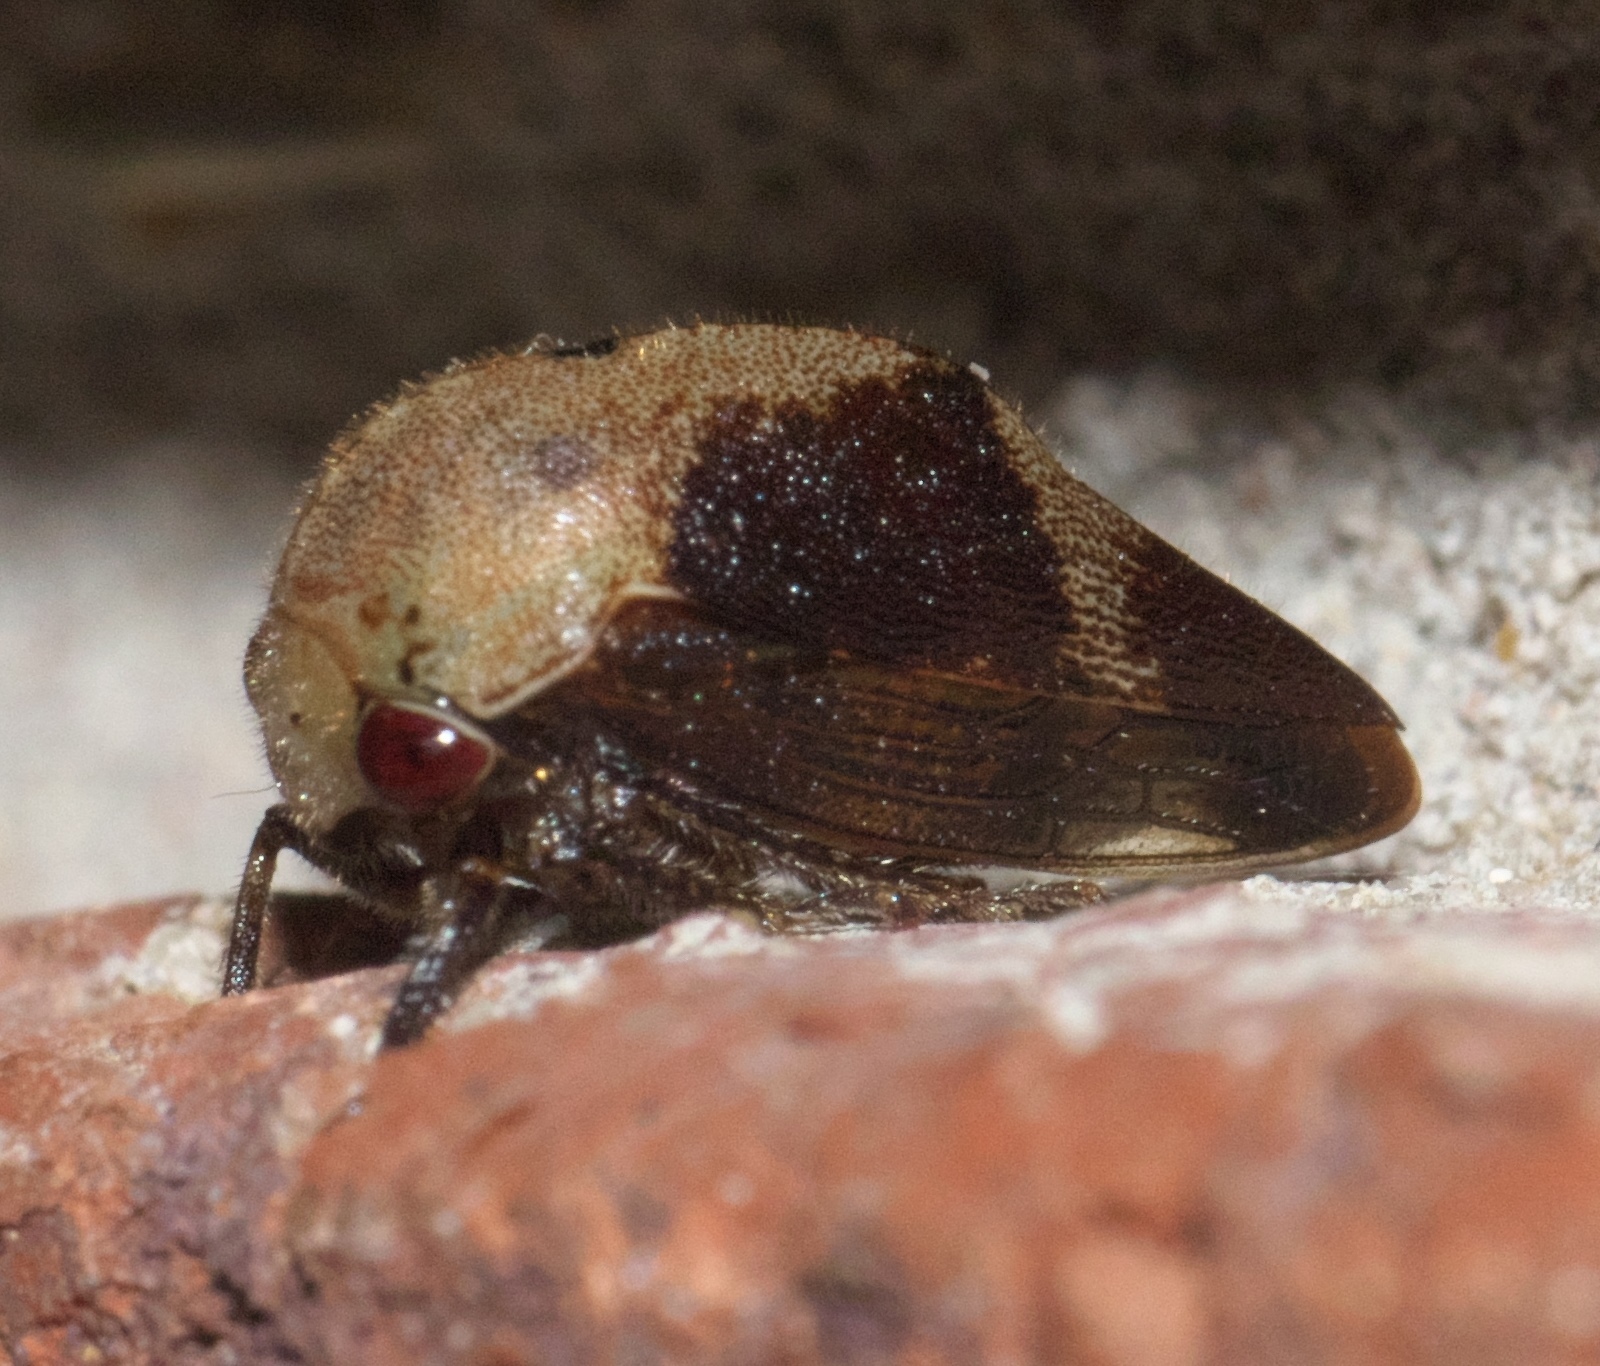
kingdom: Animalia
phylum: Arthropoda
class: Insecta
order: Hemiptera
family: Membracidae
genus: Carynota
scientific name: Carynota mera
